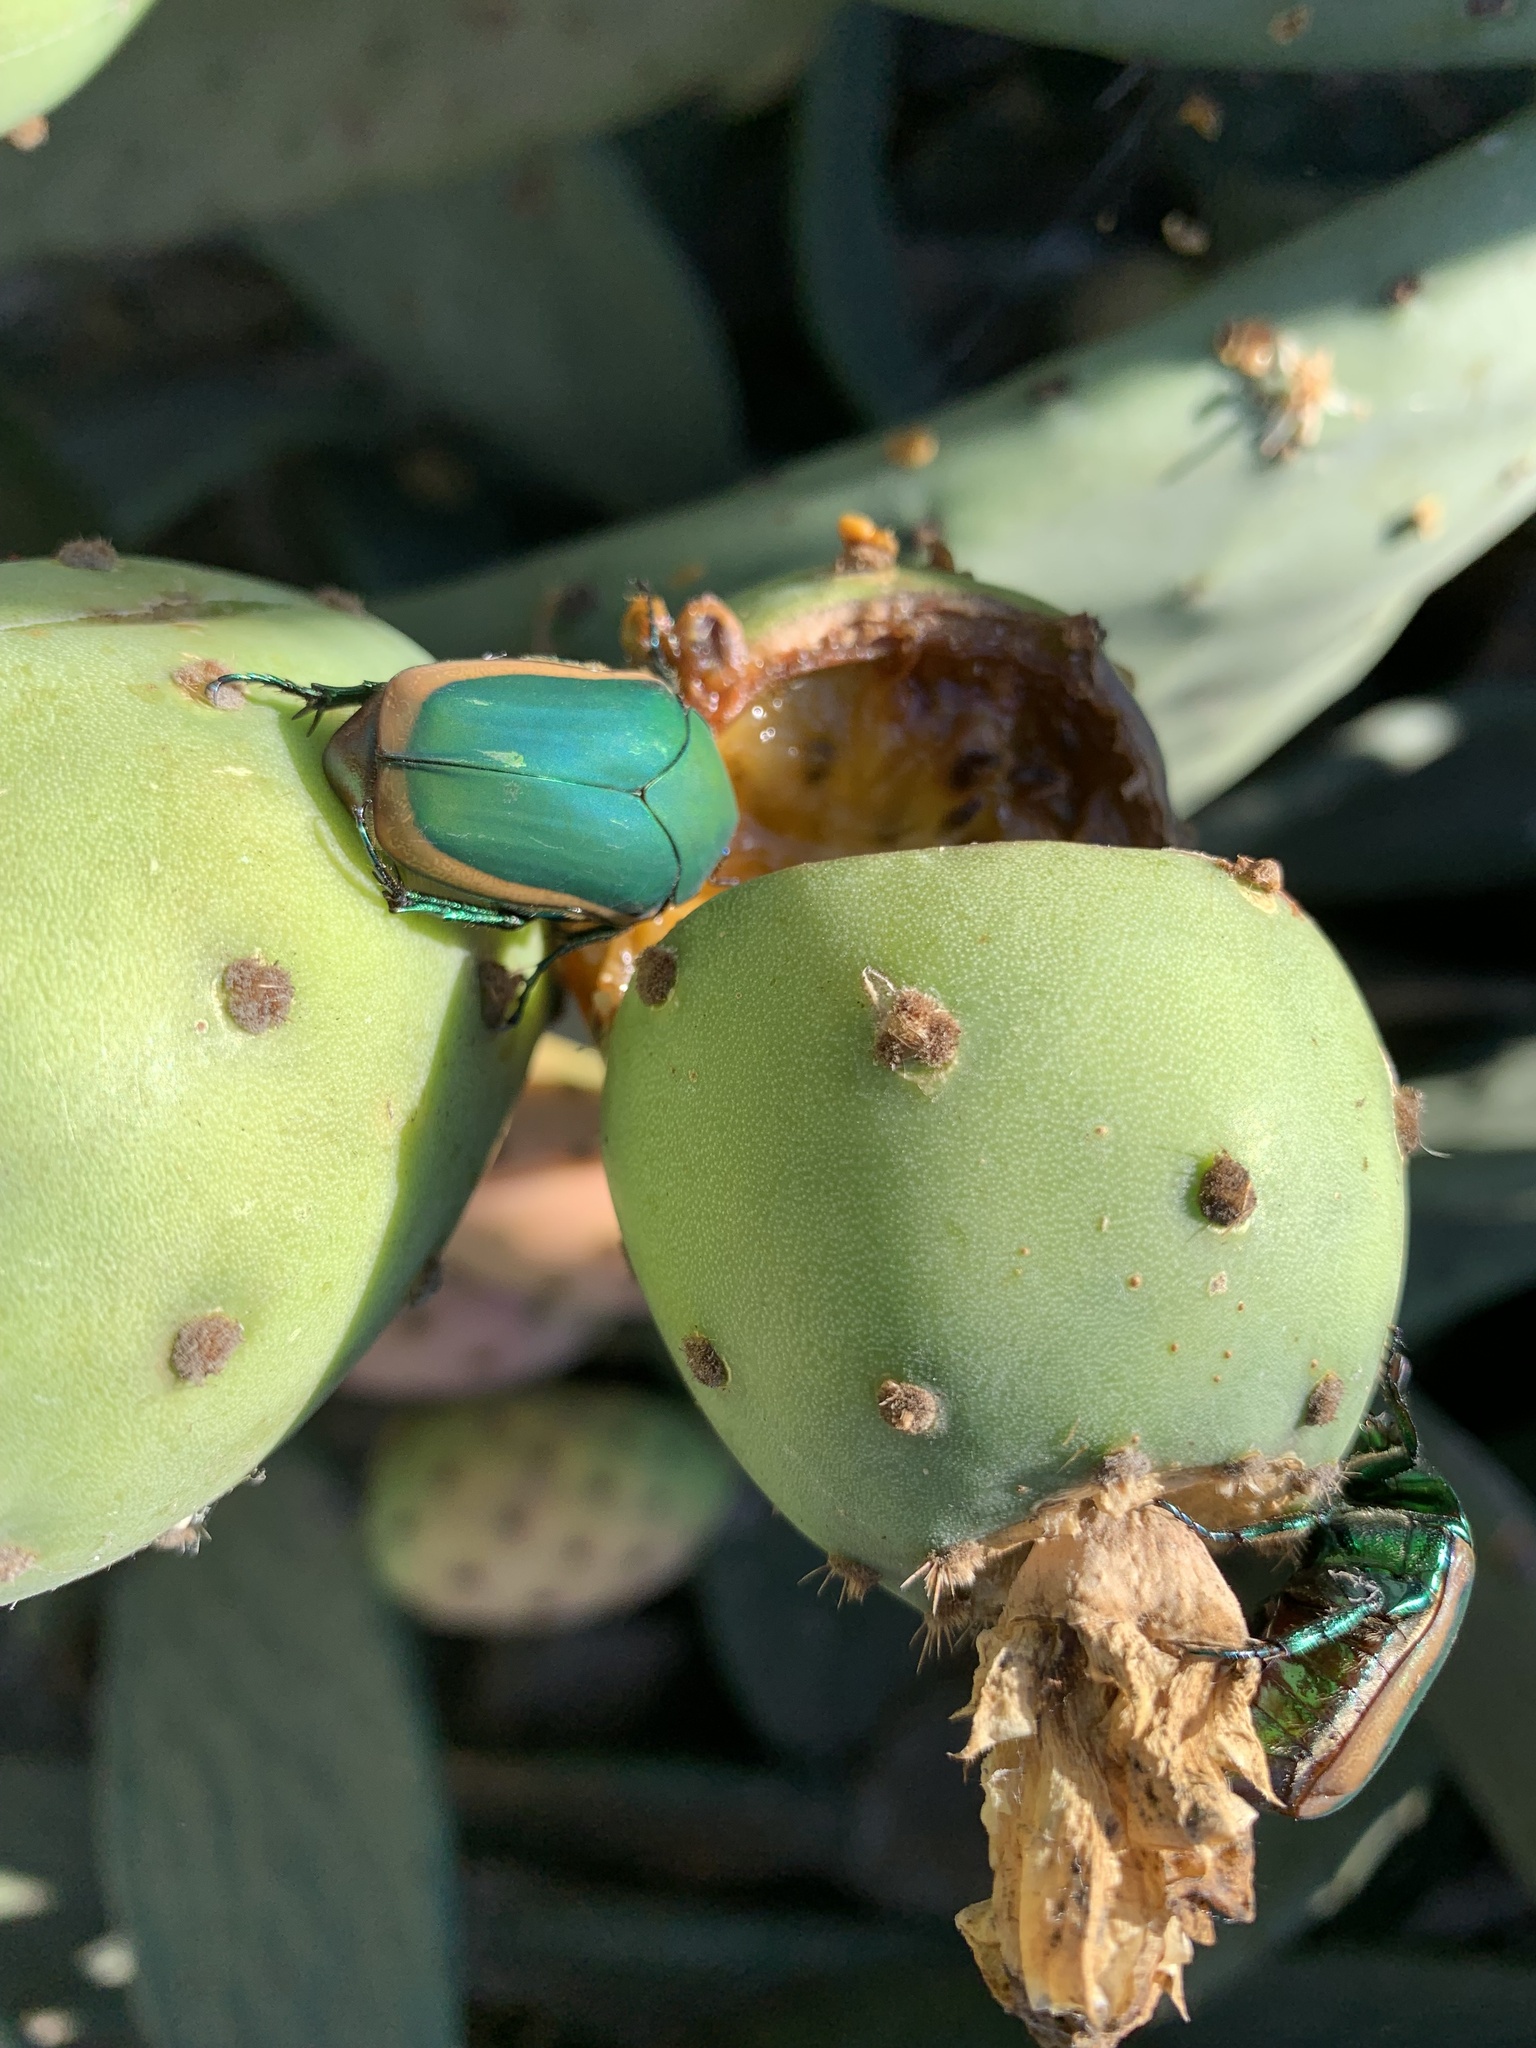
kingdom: Animalia
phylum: Arthropoda
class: Insecta
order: Coleoptera
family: Scarabaeidae
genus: Cotinis
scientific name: Cotinis mutabilis
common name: Figeater beetle
